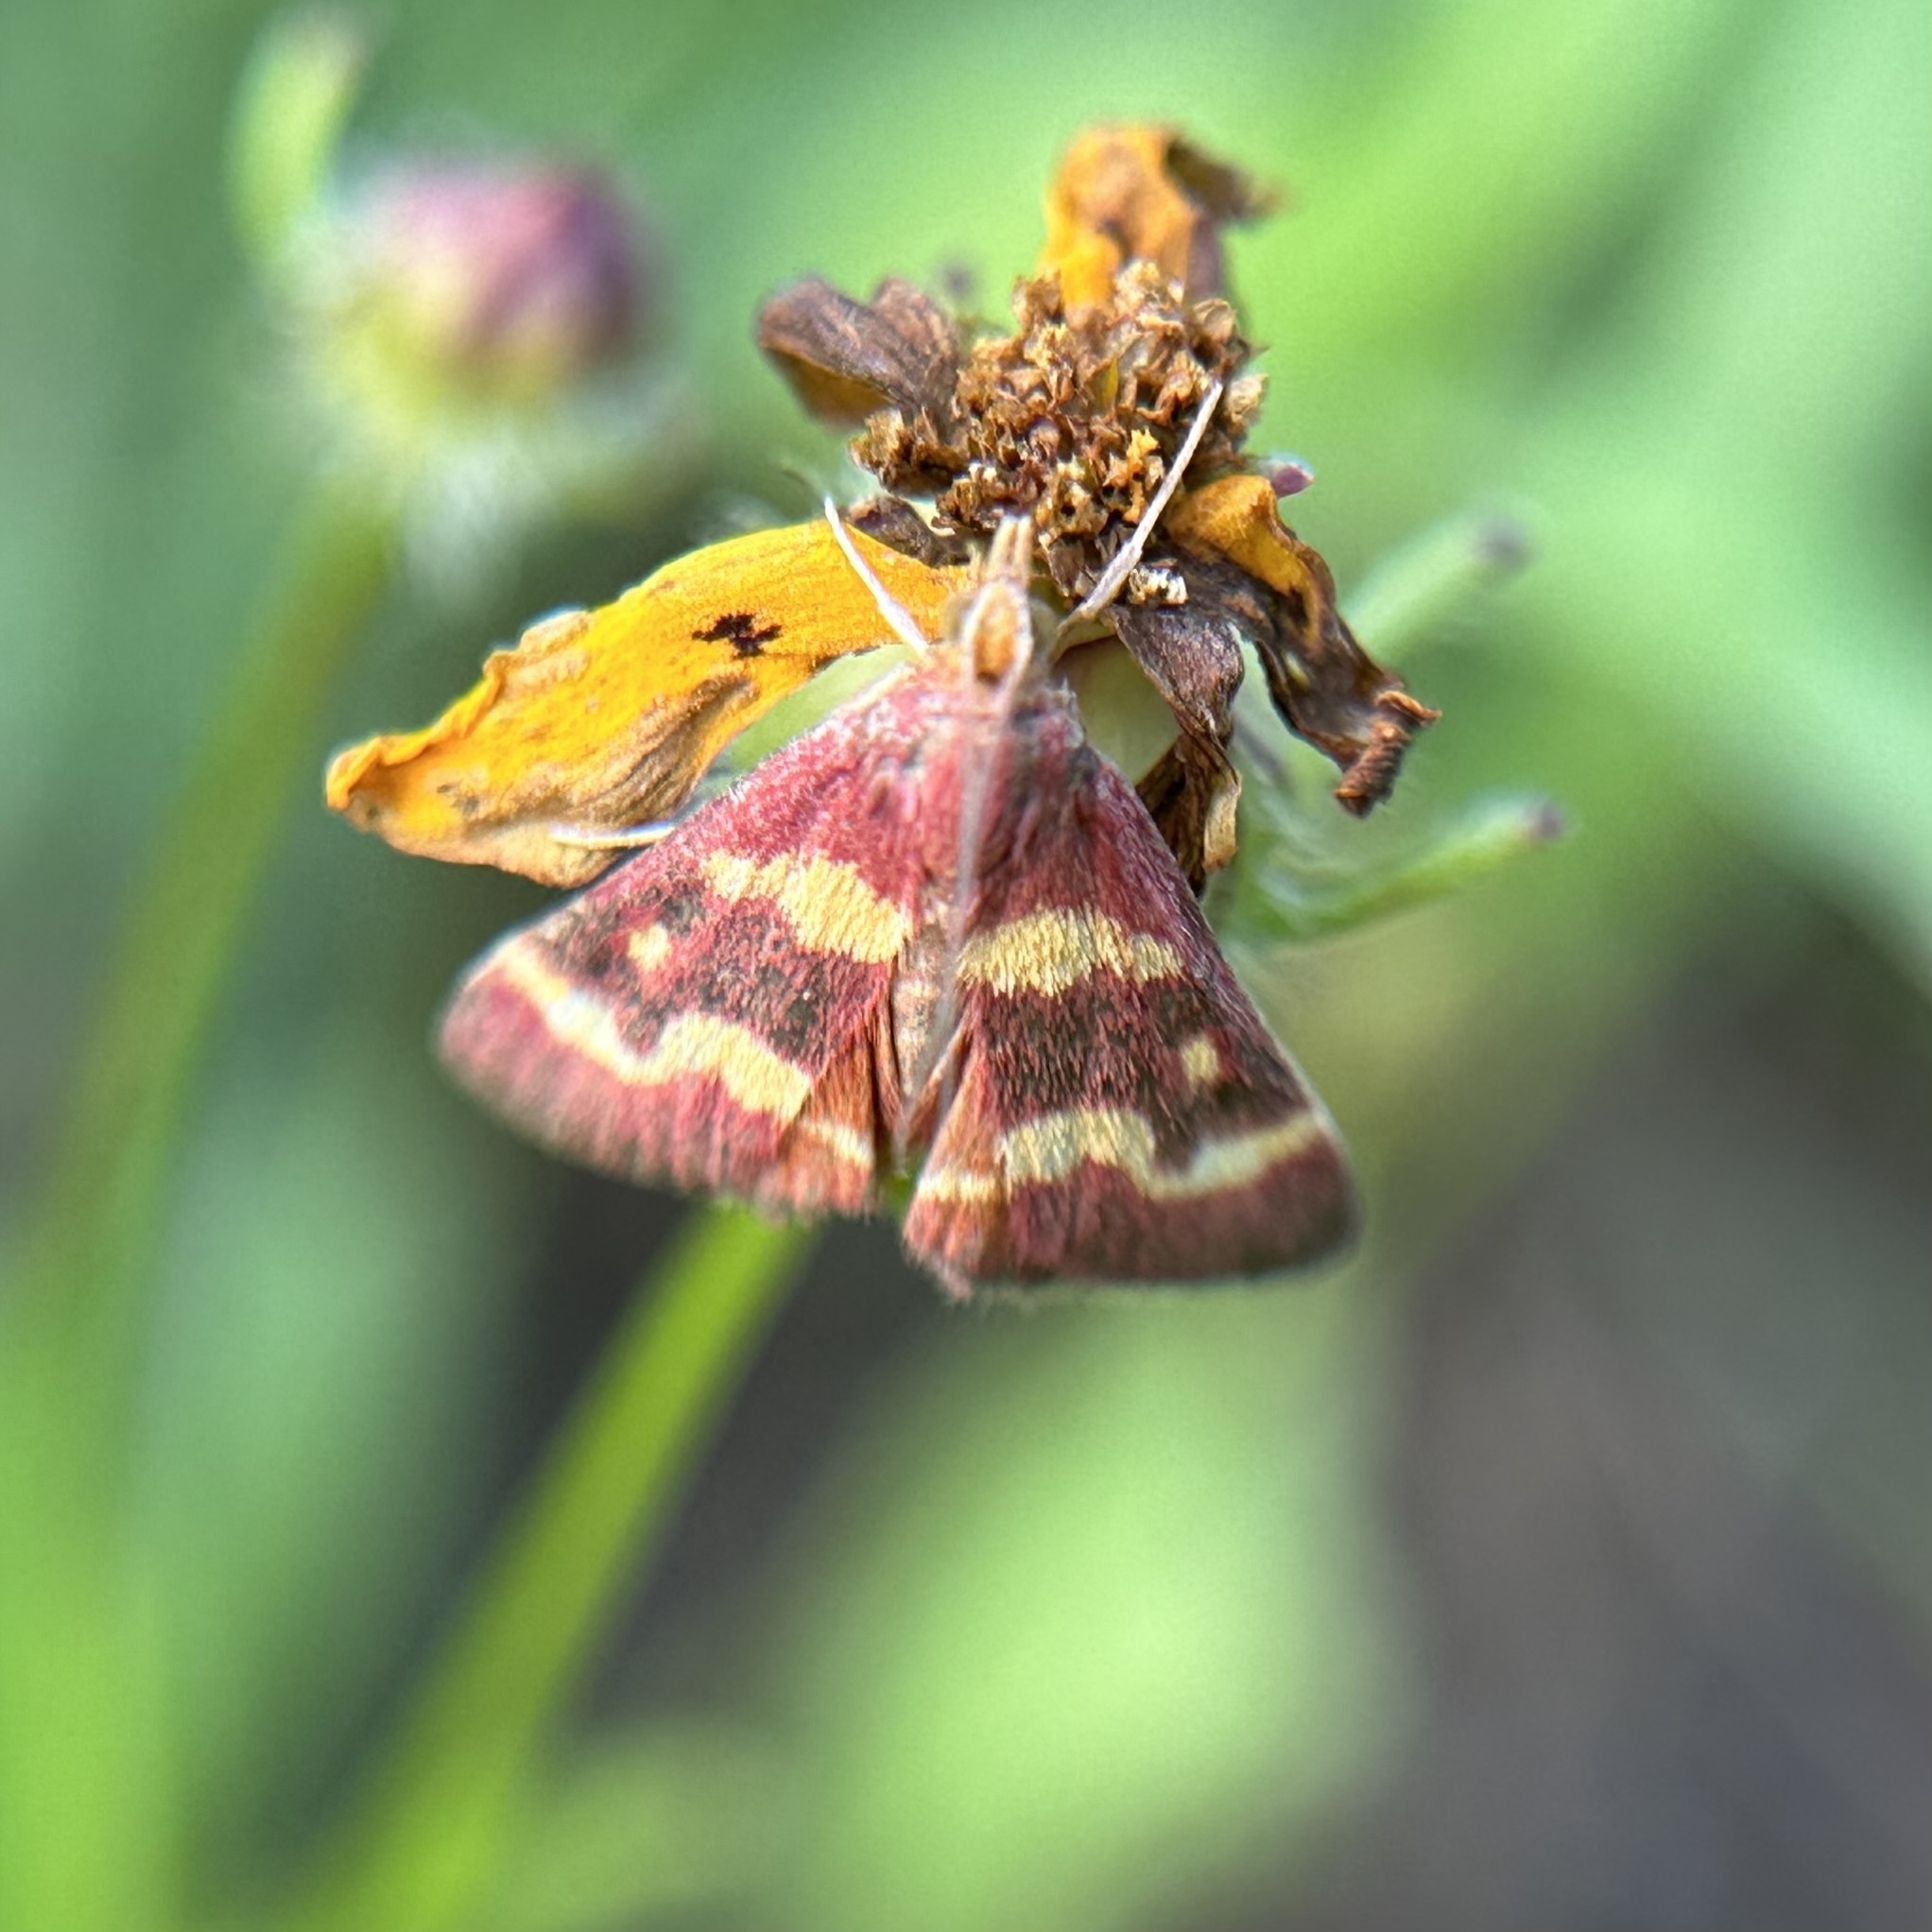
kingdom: Animalia
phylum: Arthropoda
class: Insecta
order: Lepidoptera
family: Crambidae
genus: Pyrausta
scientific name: Pyrausta tyralis
